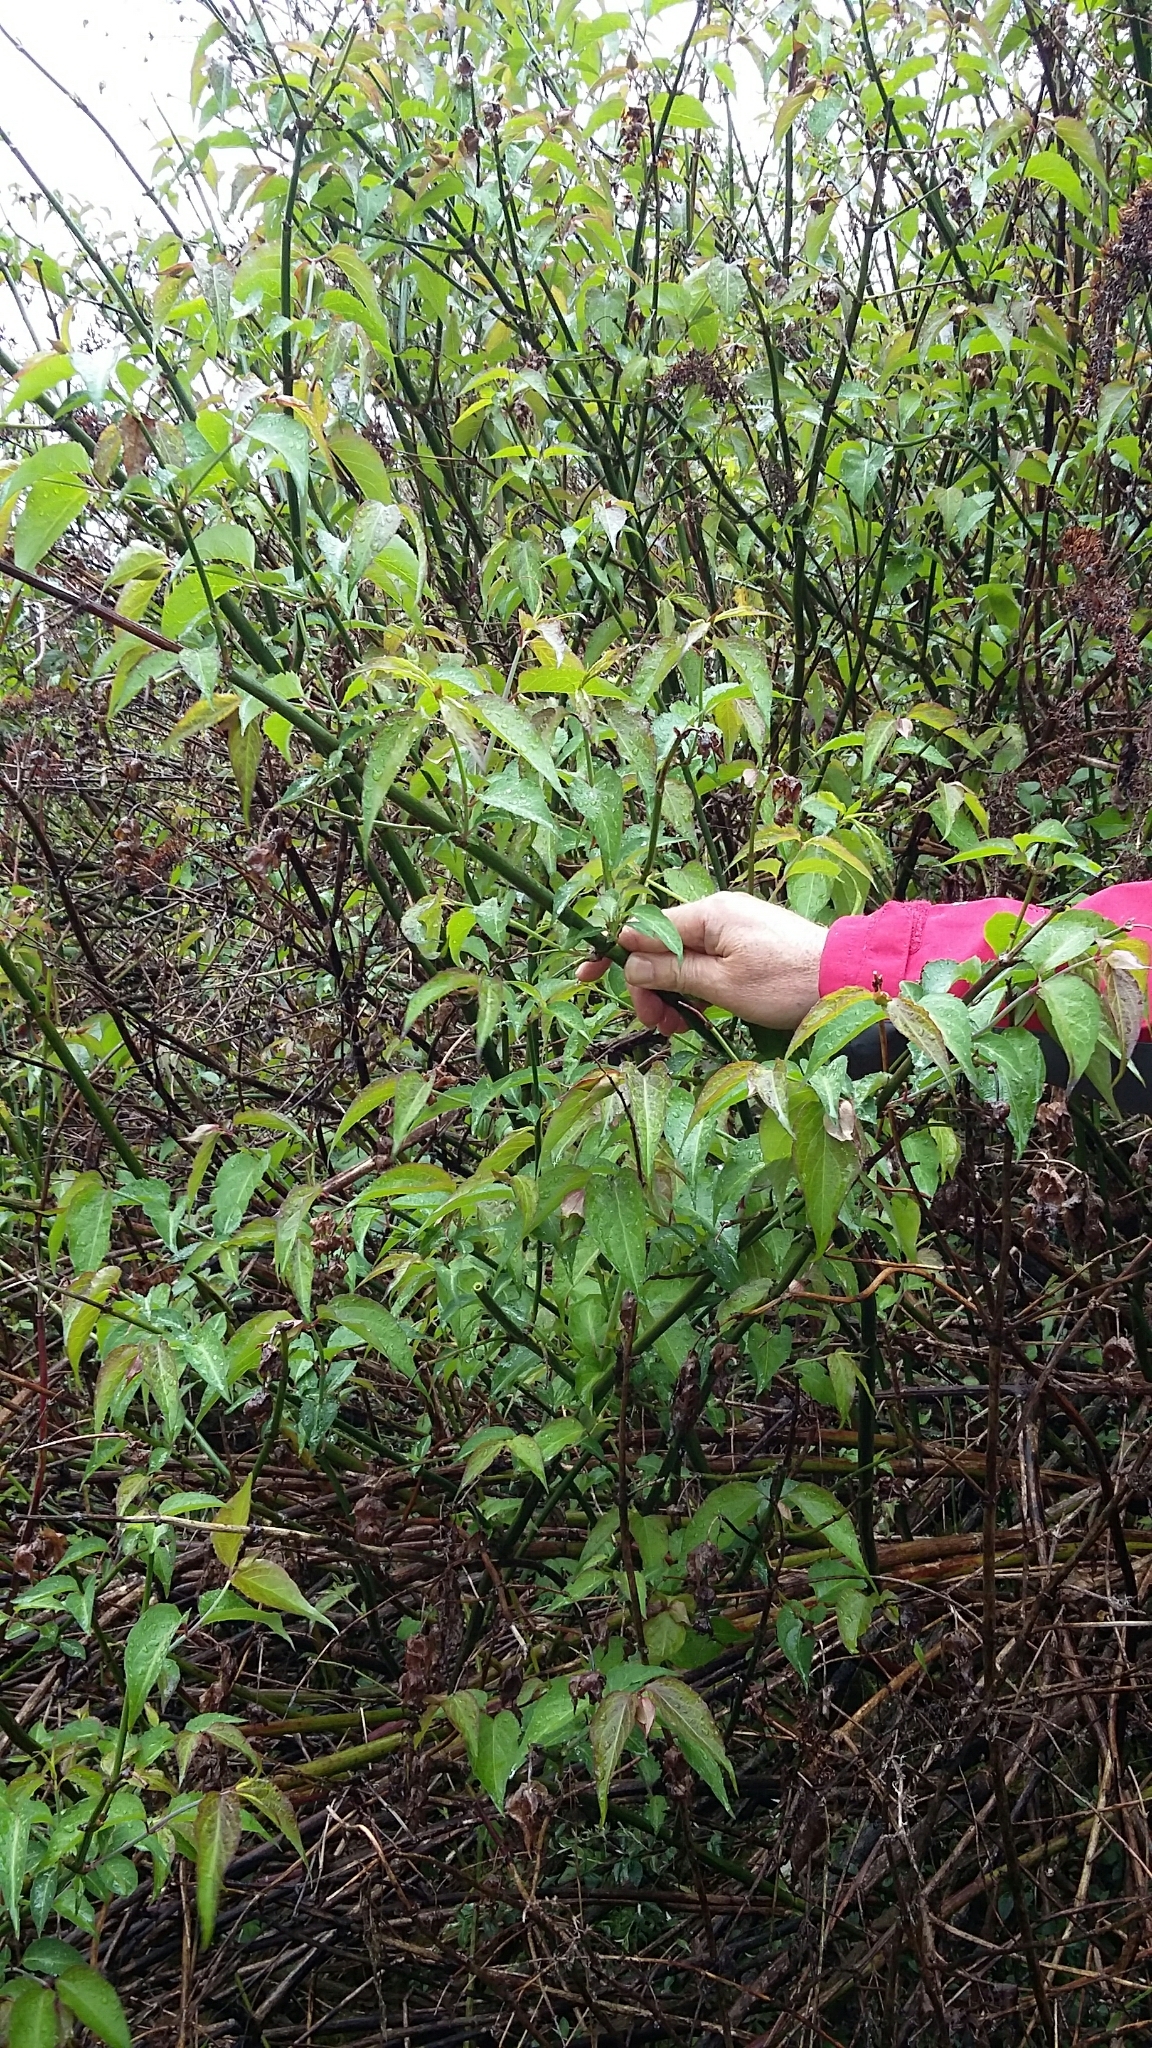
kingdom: Plantae
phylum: Tracheophyta
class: Magnoliopsida
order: Dipsacales
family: Caprifoliaceae
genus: Leycesteria
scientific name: Leycesteria formosa
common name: Himalayan honeysuckle
